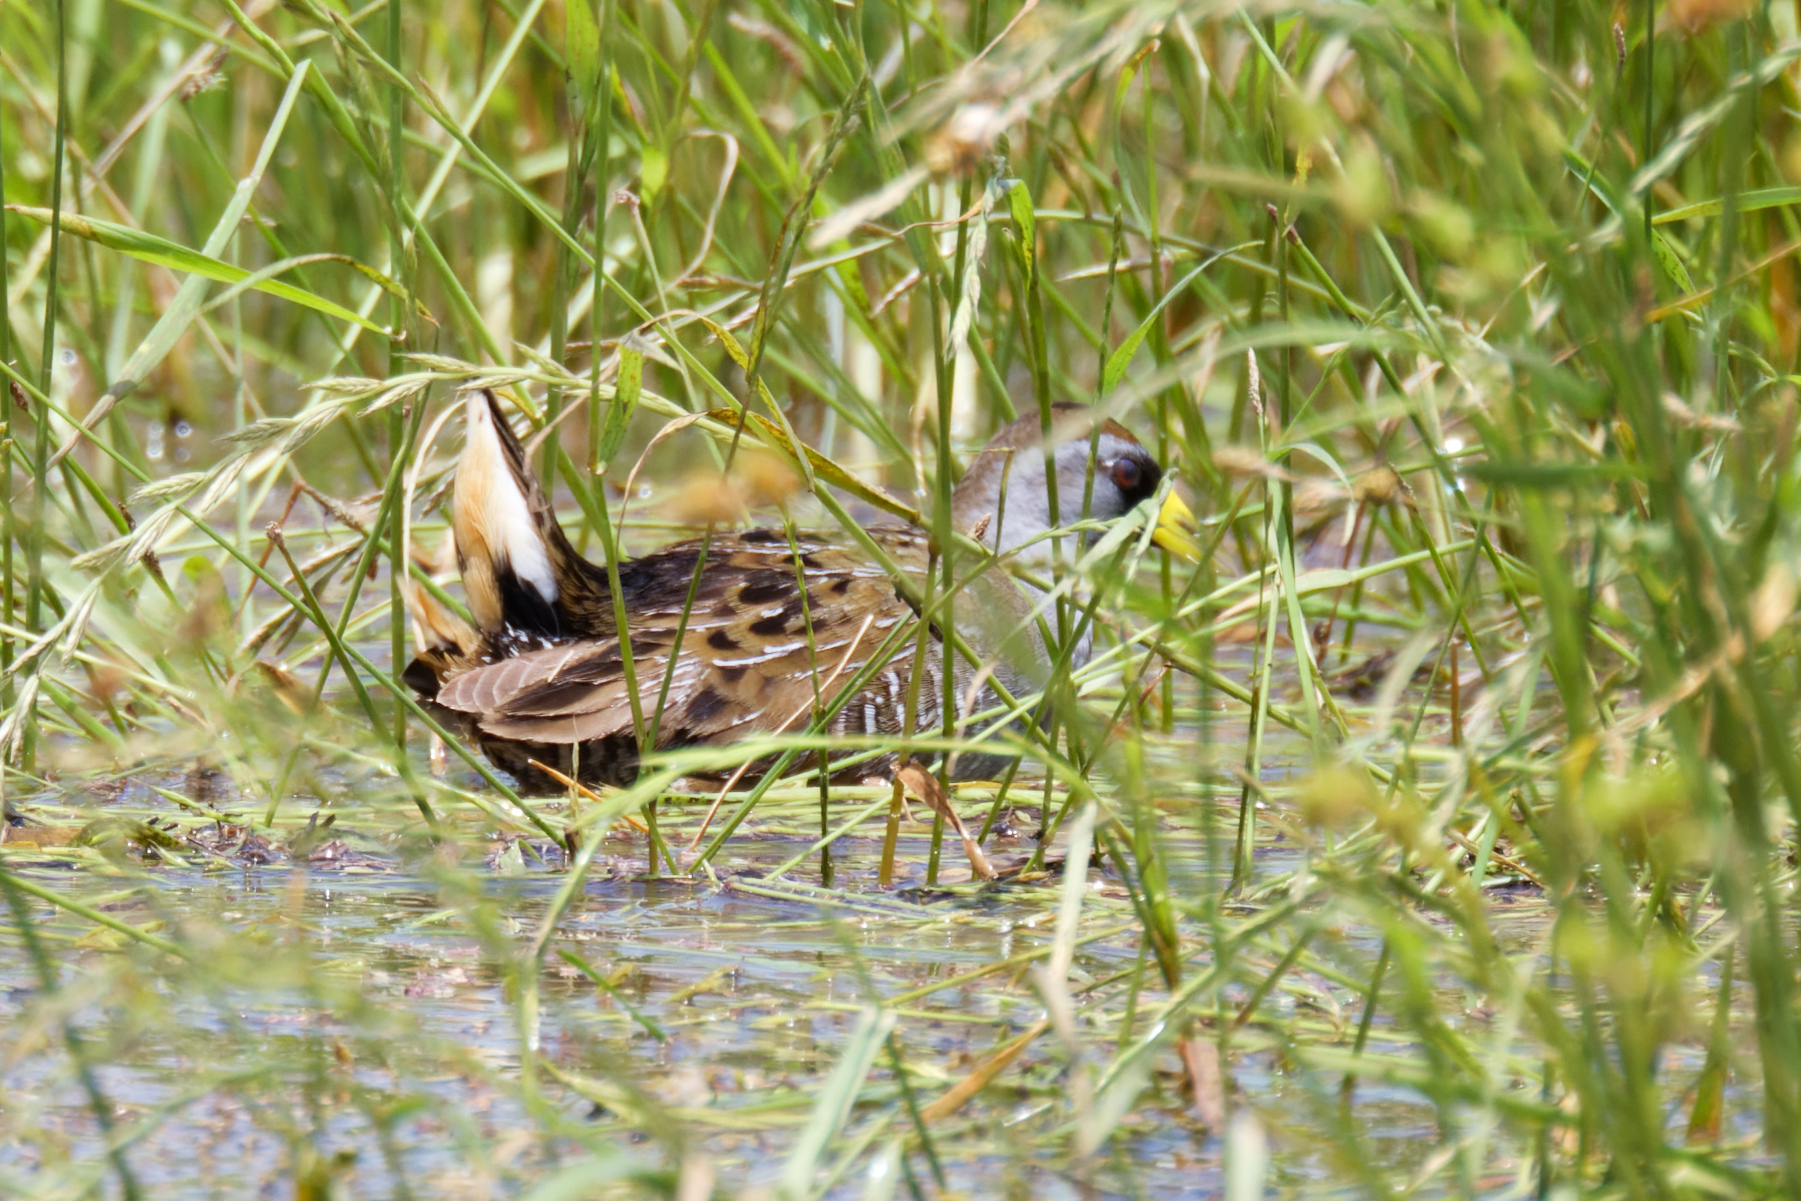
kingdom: Animalia
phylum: Chordata
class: Aves
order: Gruiformes
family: Rallidae
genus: Porzana
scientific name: Porzana carolina
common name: Sora
